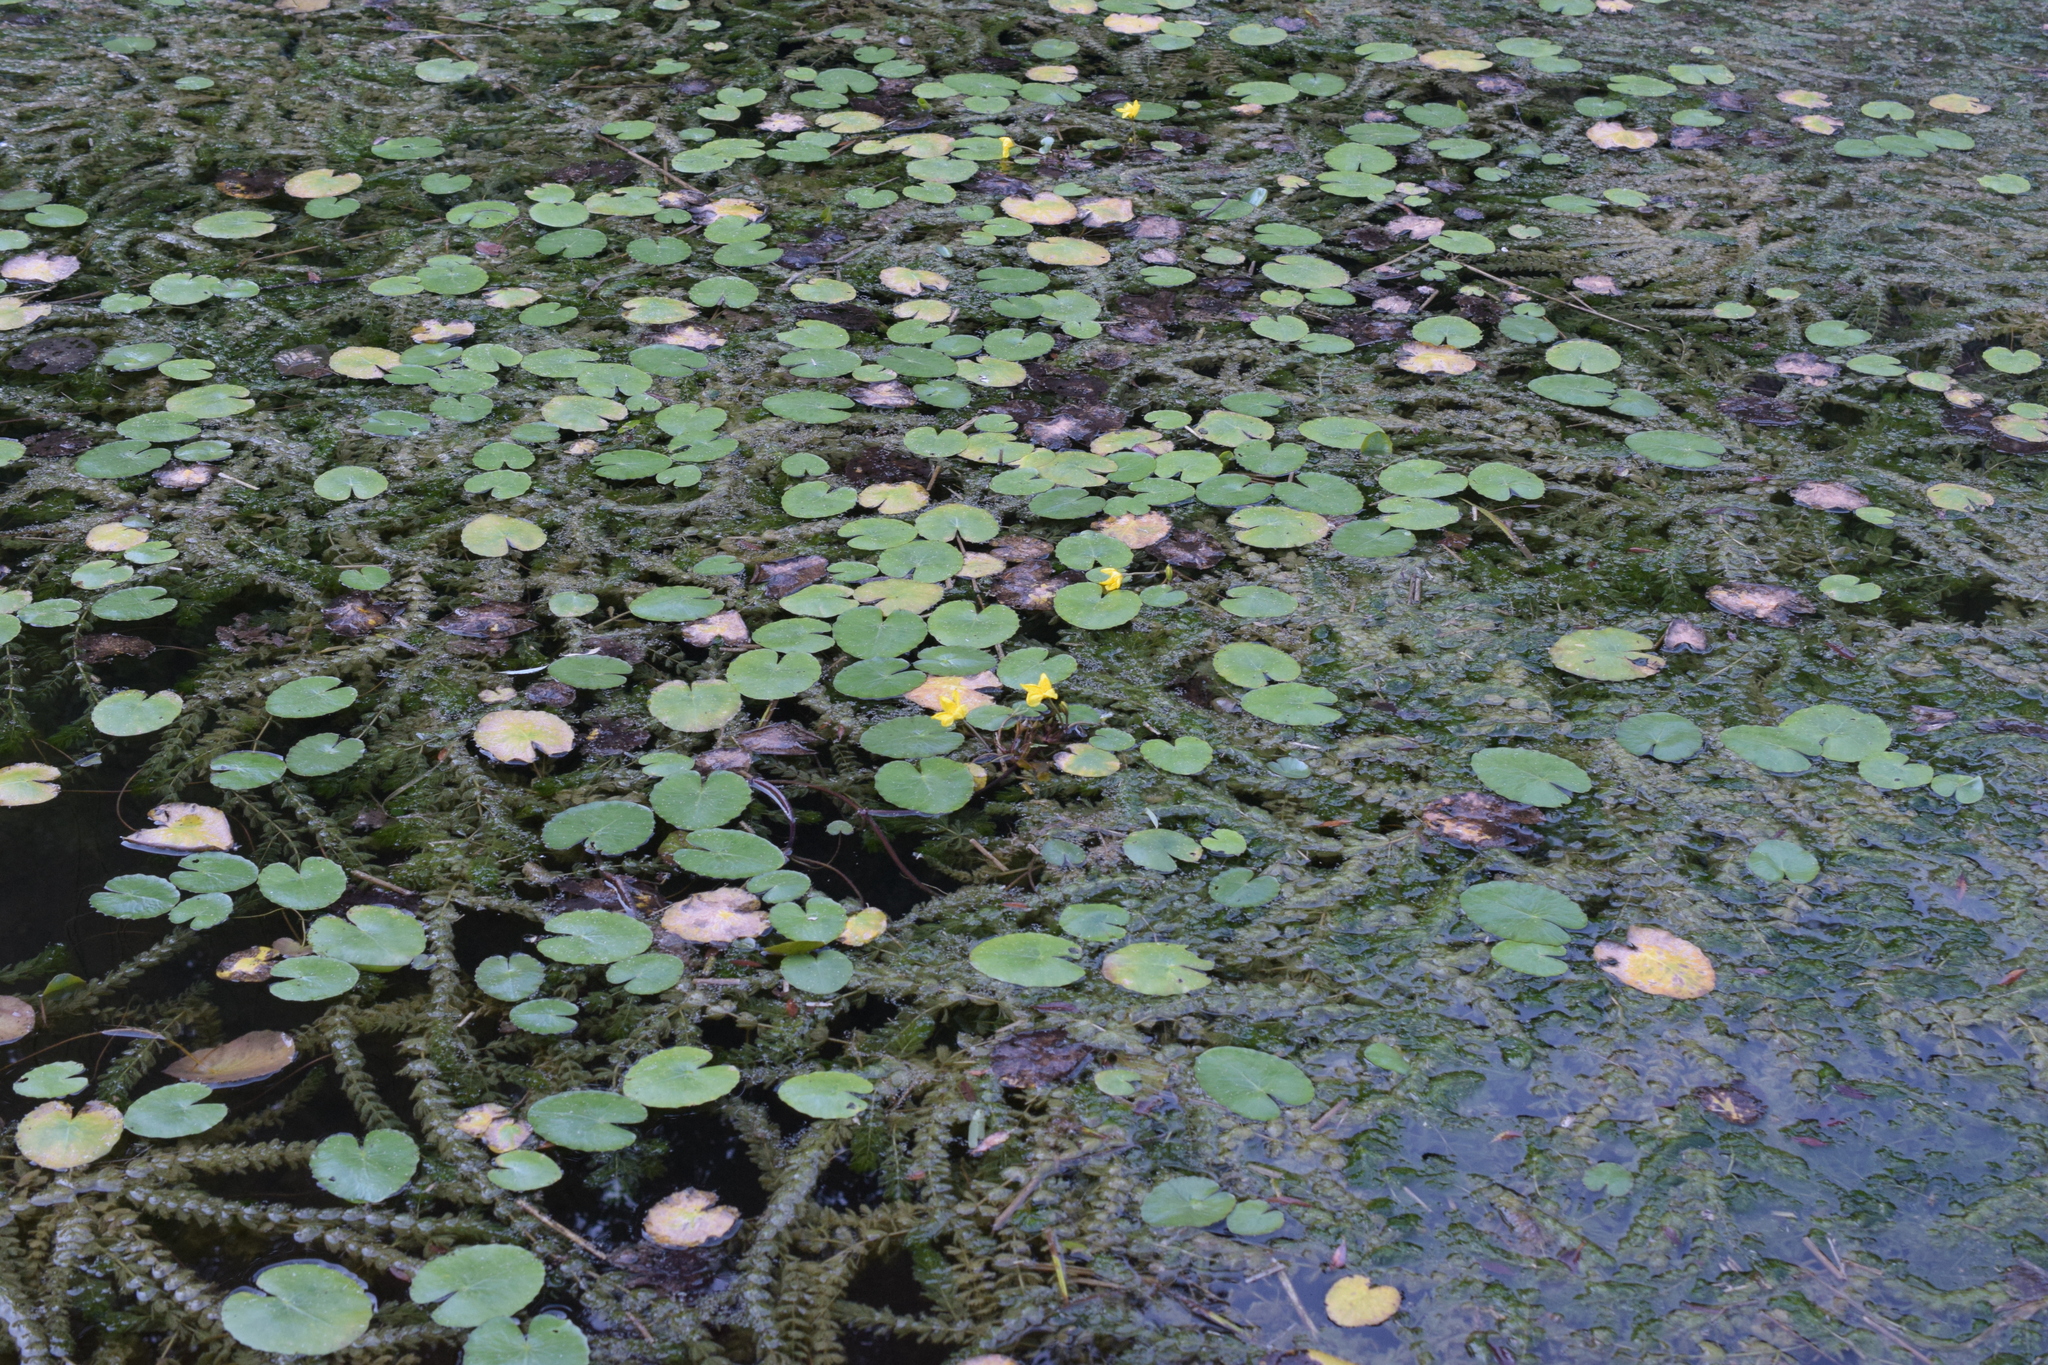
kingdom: Plantae
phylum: Tracheophyta
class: Magnoliopsida
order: Asterales
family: Menyanthaceae
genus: Nymphoides
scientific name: Nymphoides peltata
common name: Fringed water-lily
